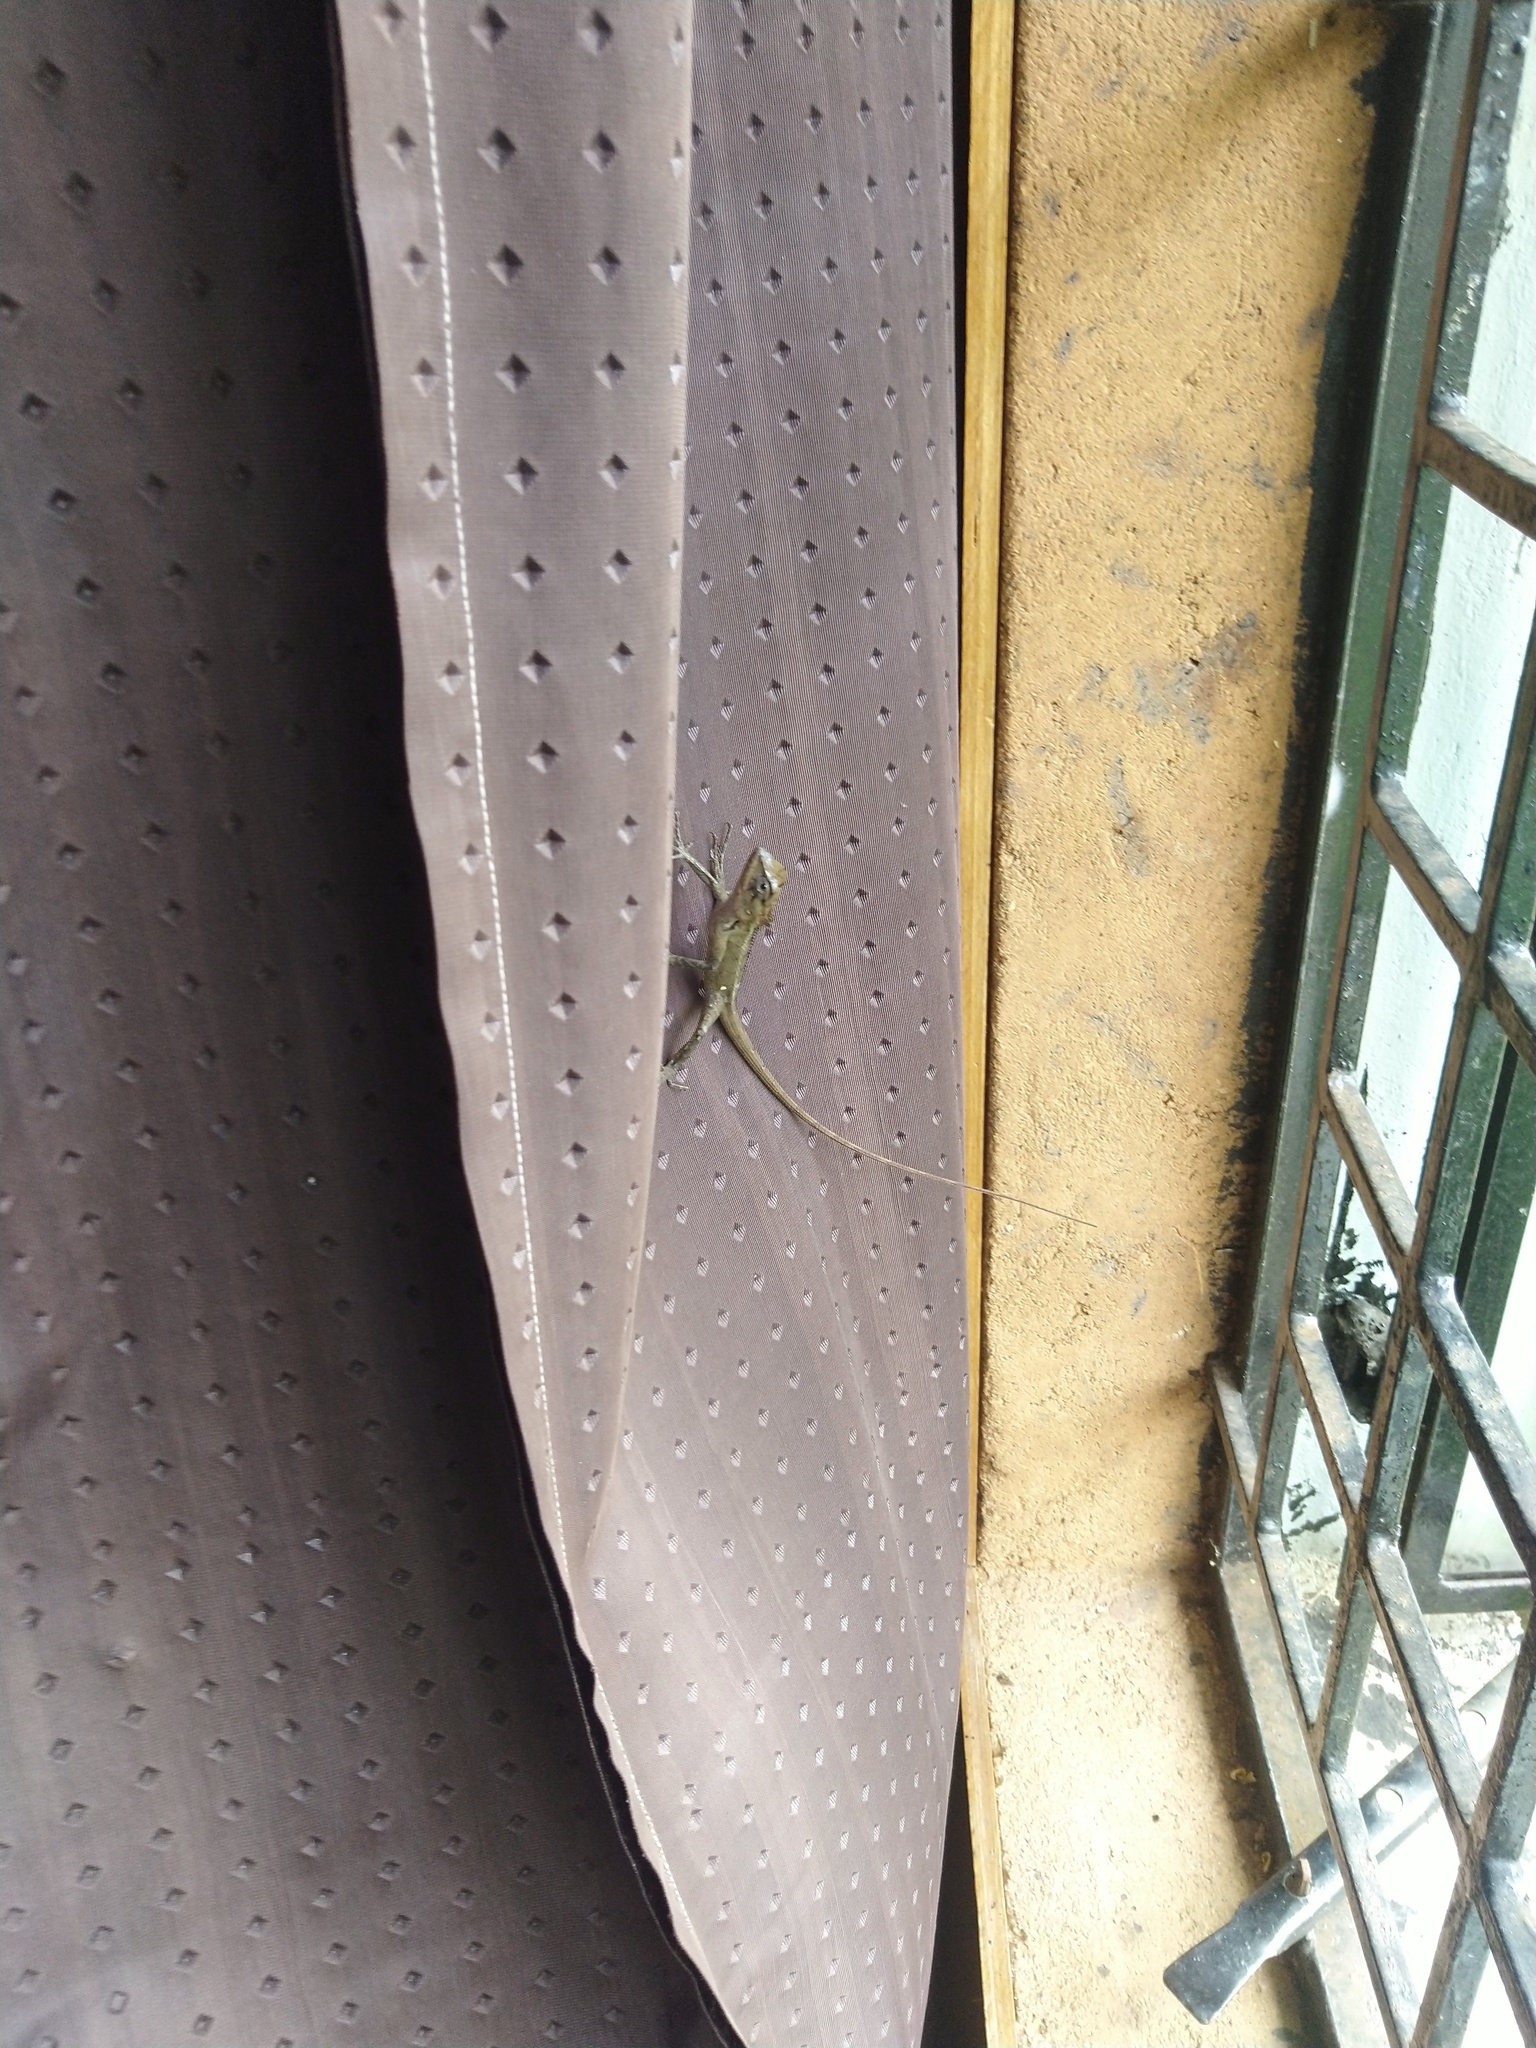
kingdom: Animalia
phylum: Chordata
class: Squamata
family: Agamidae
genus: Calotes
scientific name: Calotes versicolor
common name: Oriental garden lizard
